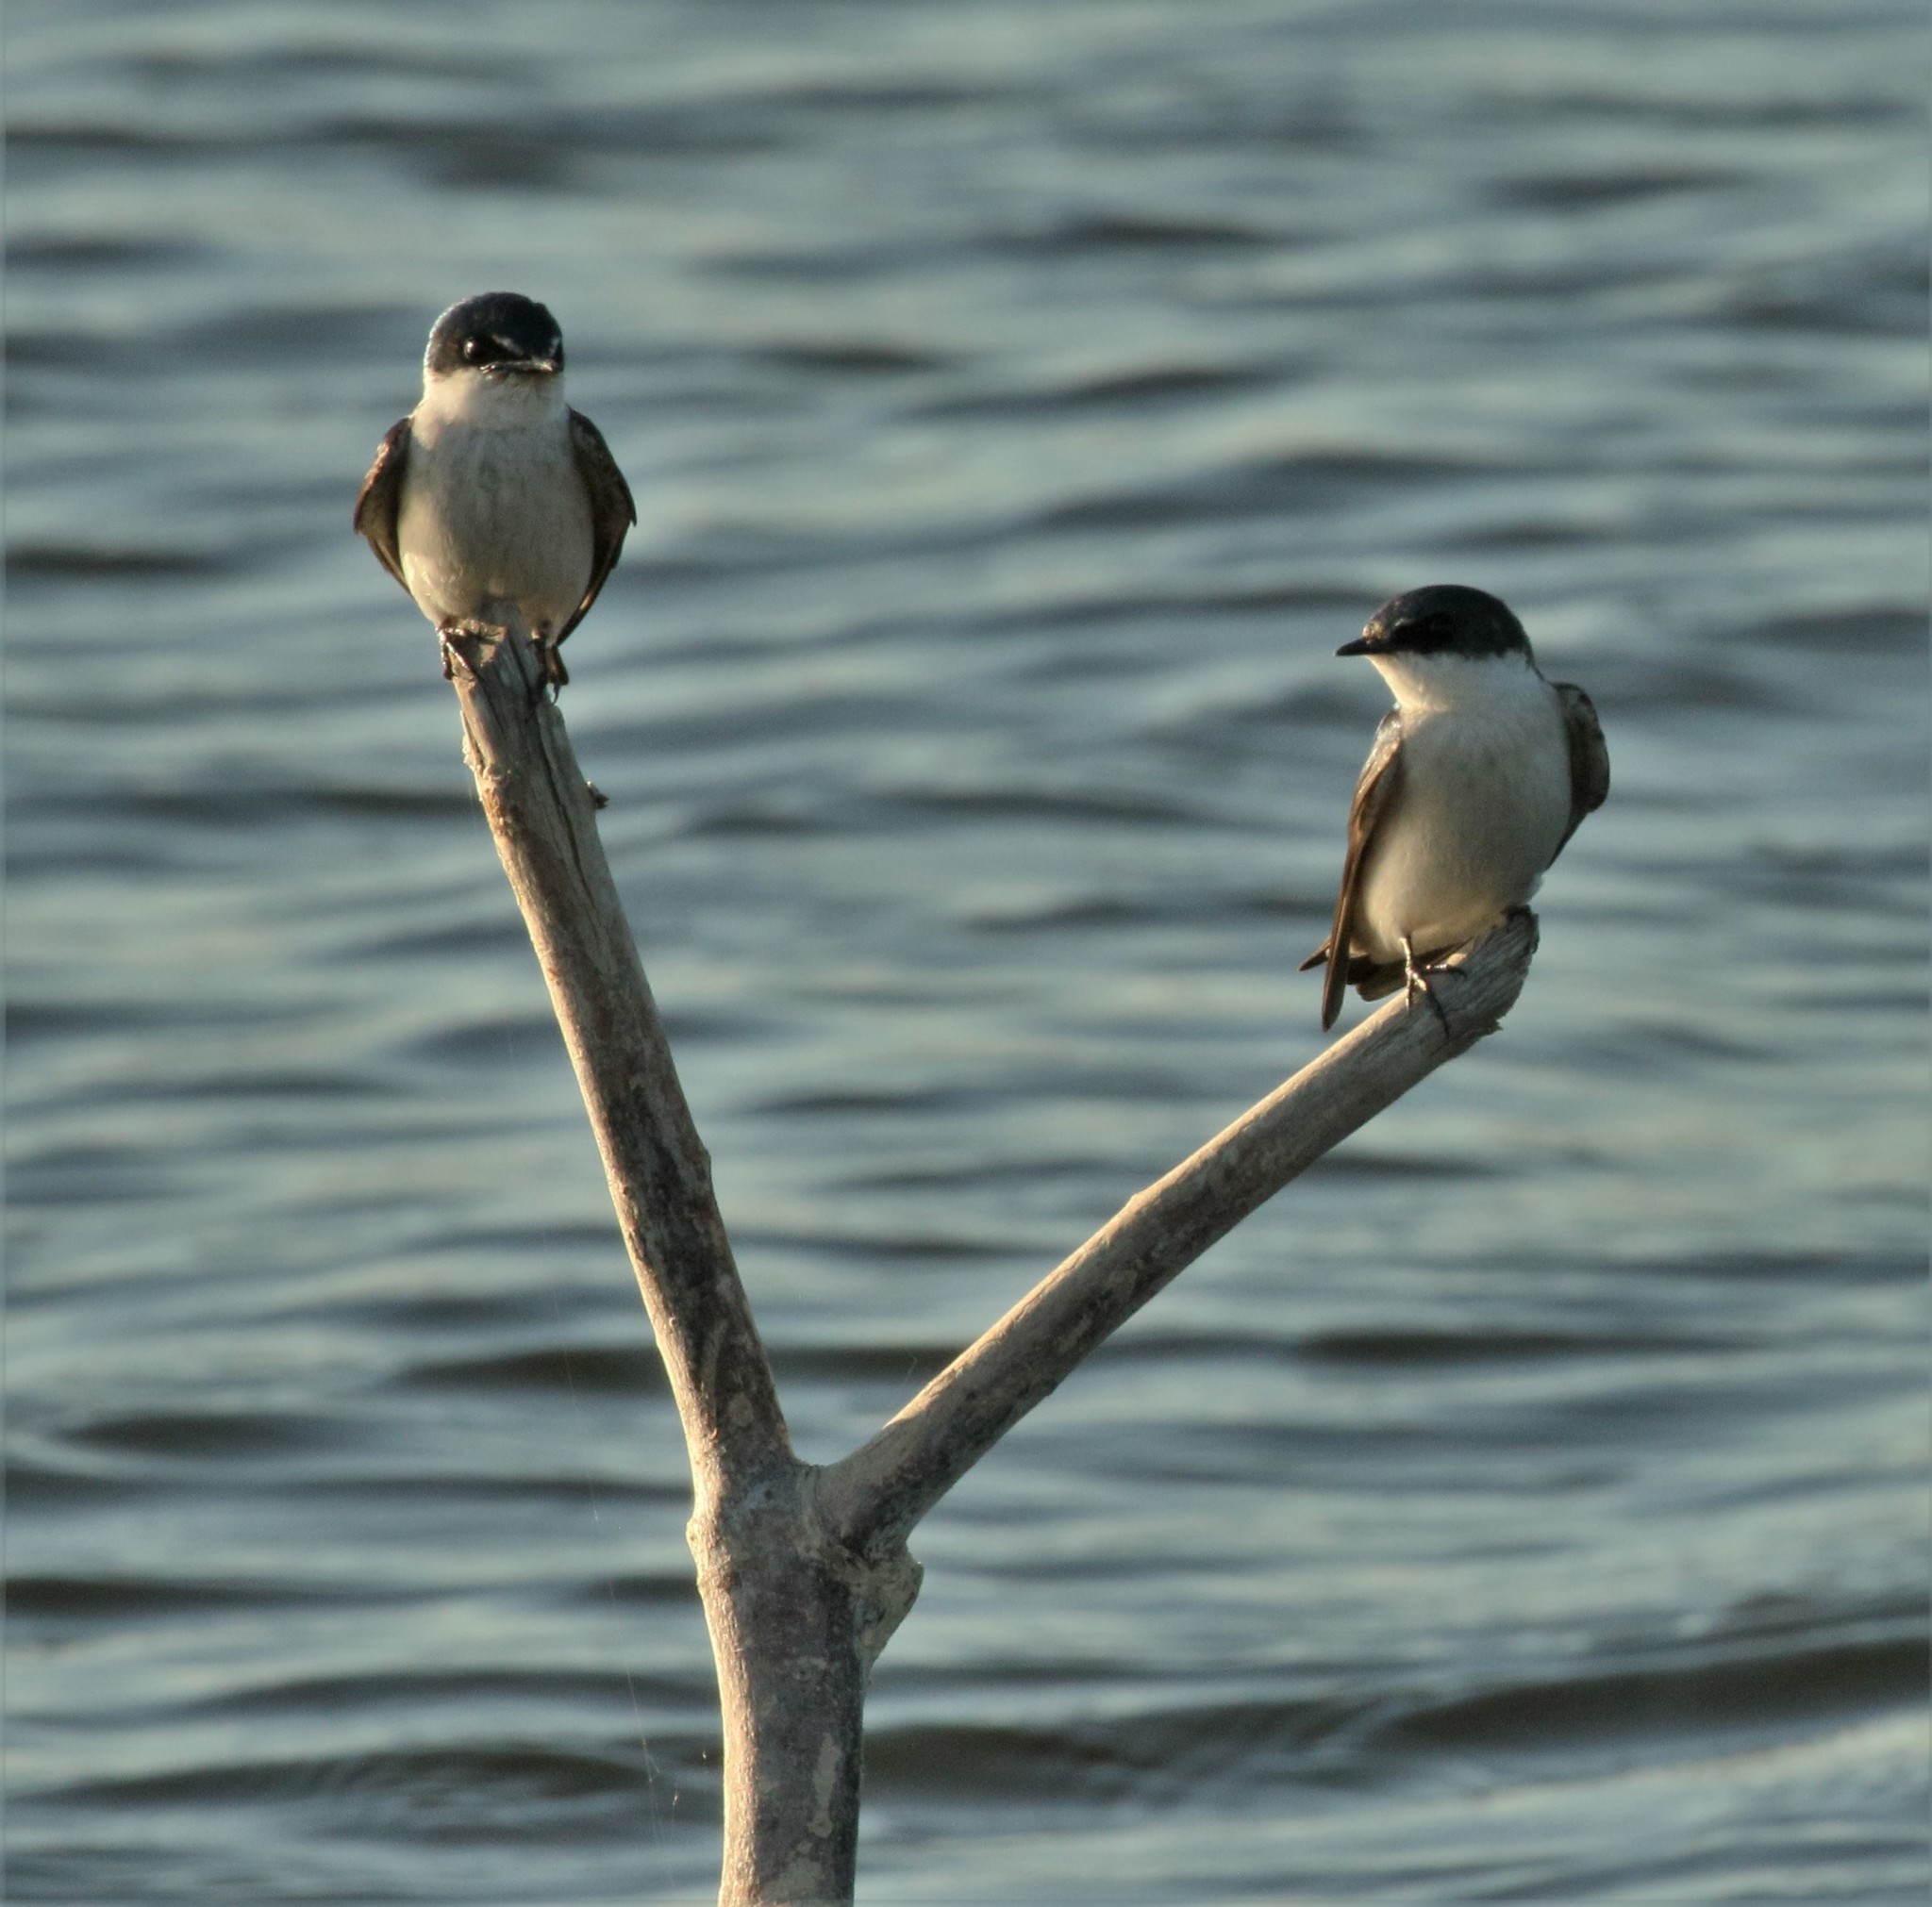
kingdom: Animalia
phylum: Chordata
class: Aves
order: Passeriformes
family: Hirundinidae
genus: Tachycineta
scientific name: Tachycineta albilinea
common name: Mangrove swallow
